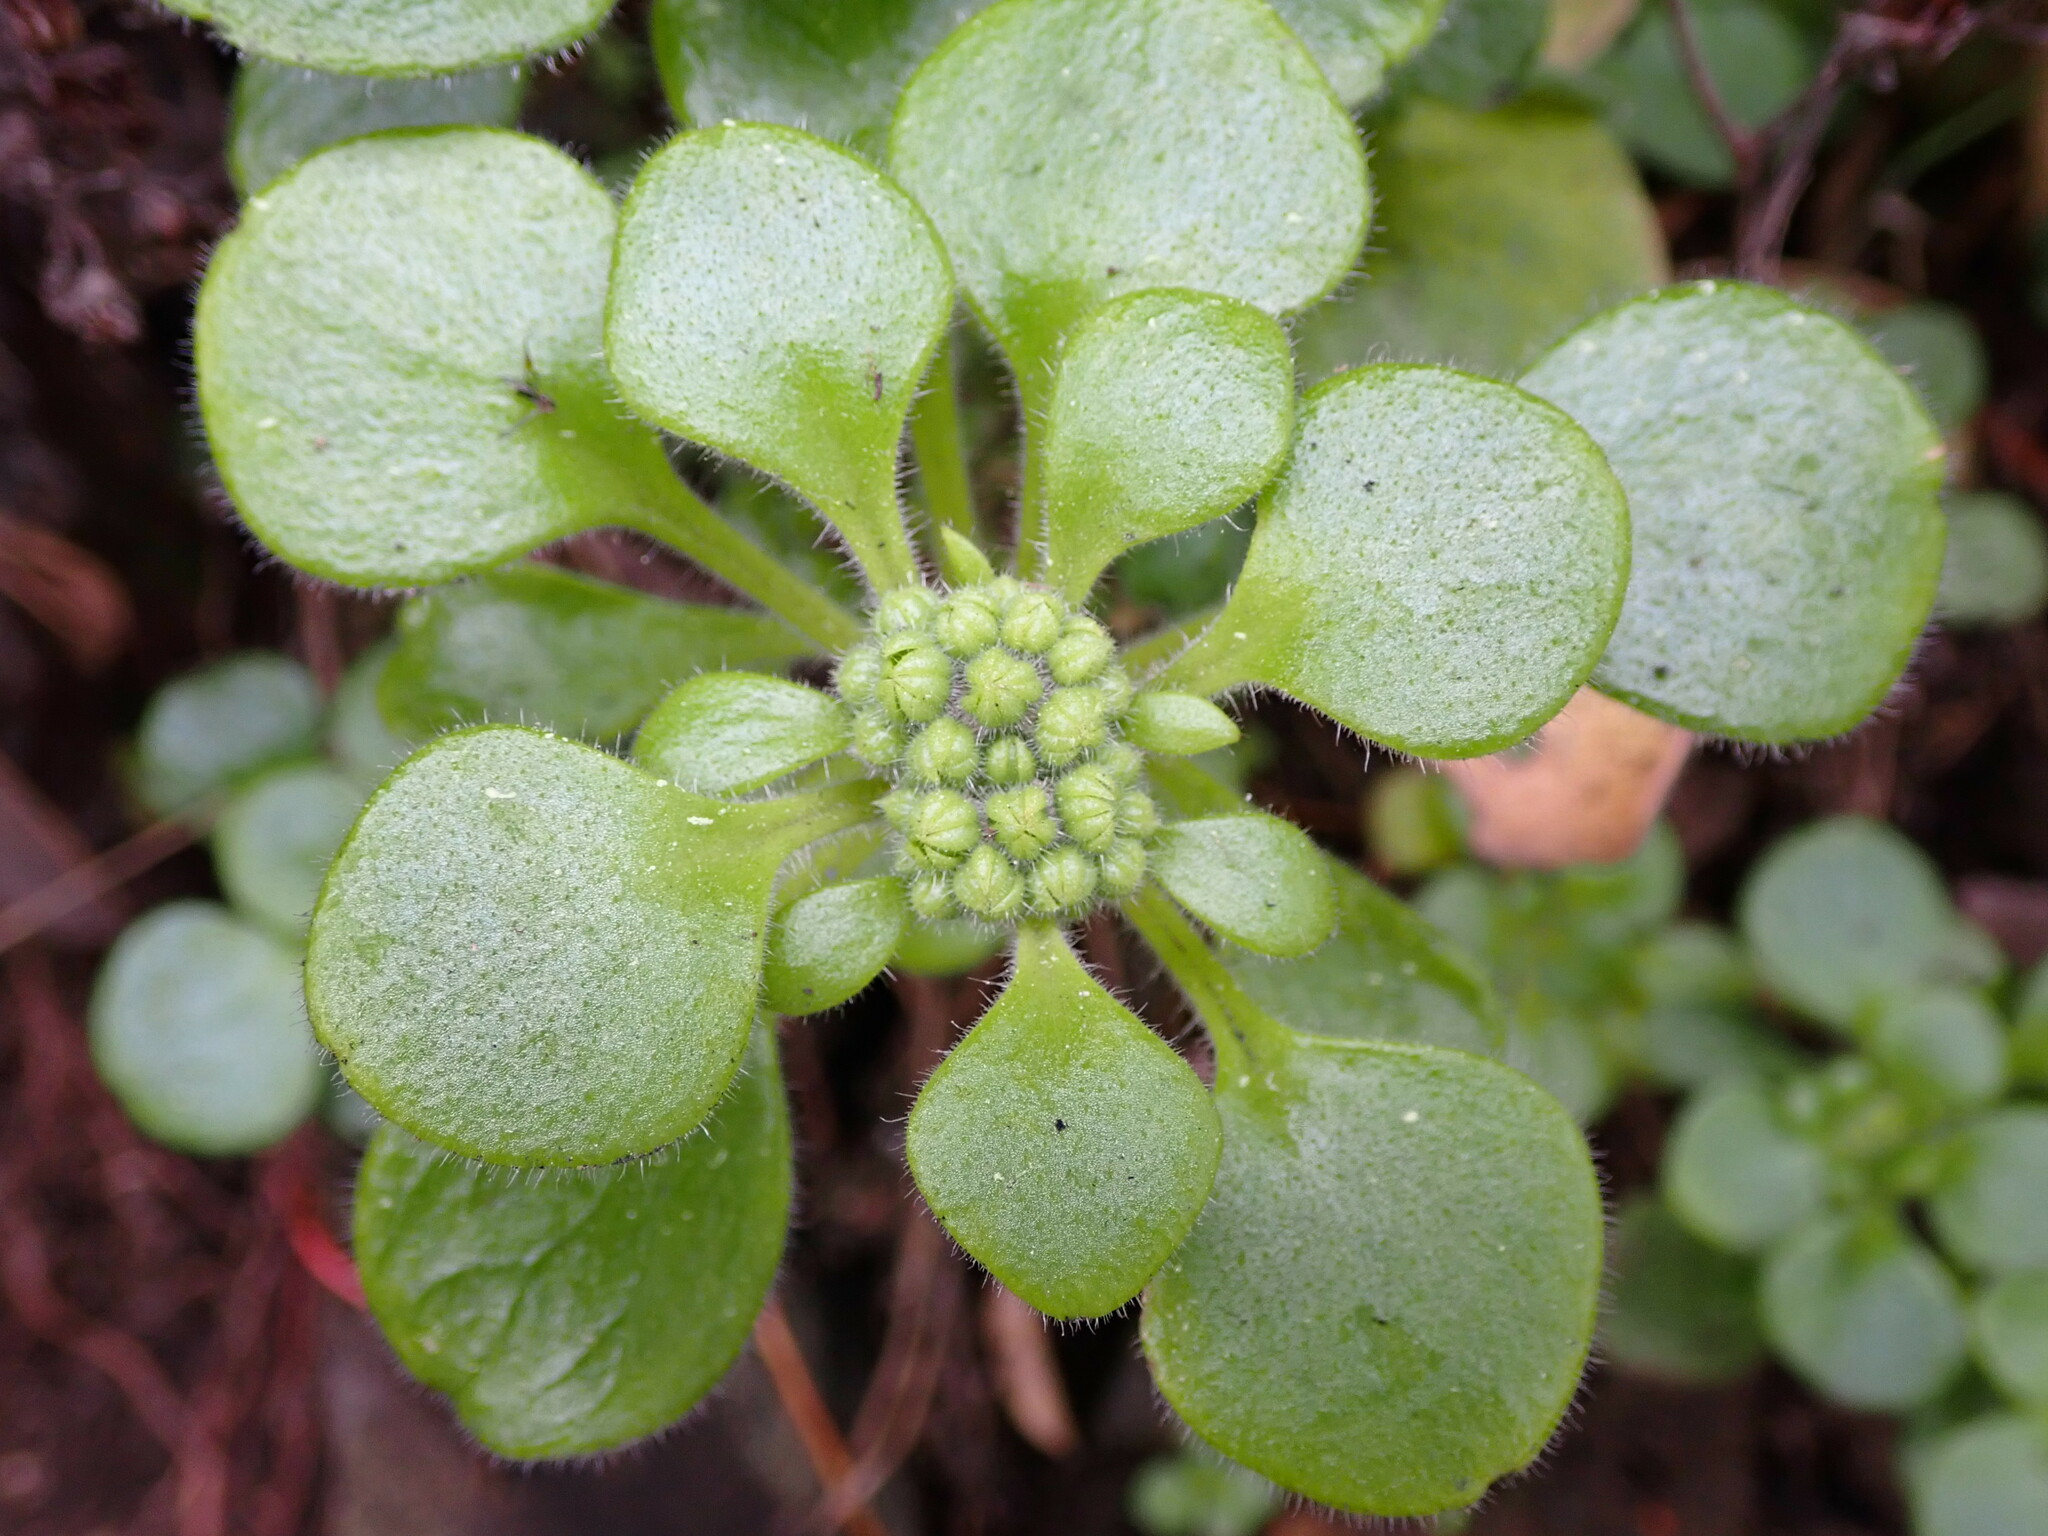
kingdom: Plantae
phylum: Tracheophyta
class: Magnoliopsida
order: Saxifragales
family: Crassulaceae
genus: Aichryson
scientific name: Aichryson laxum
